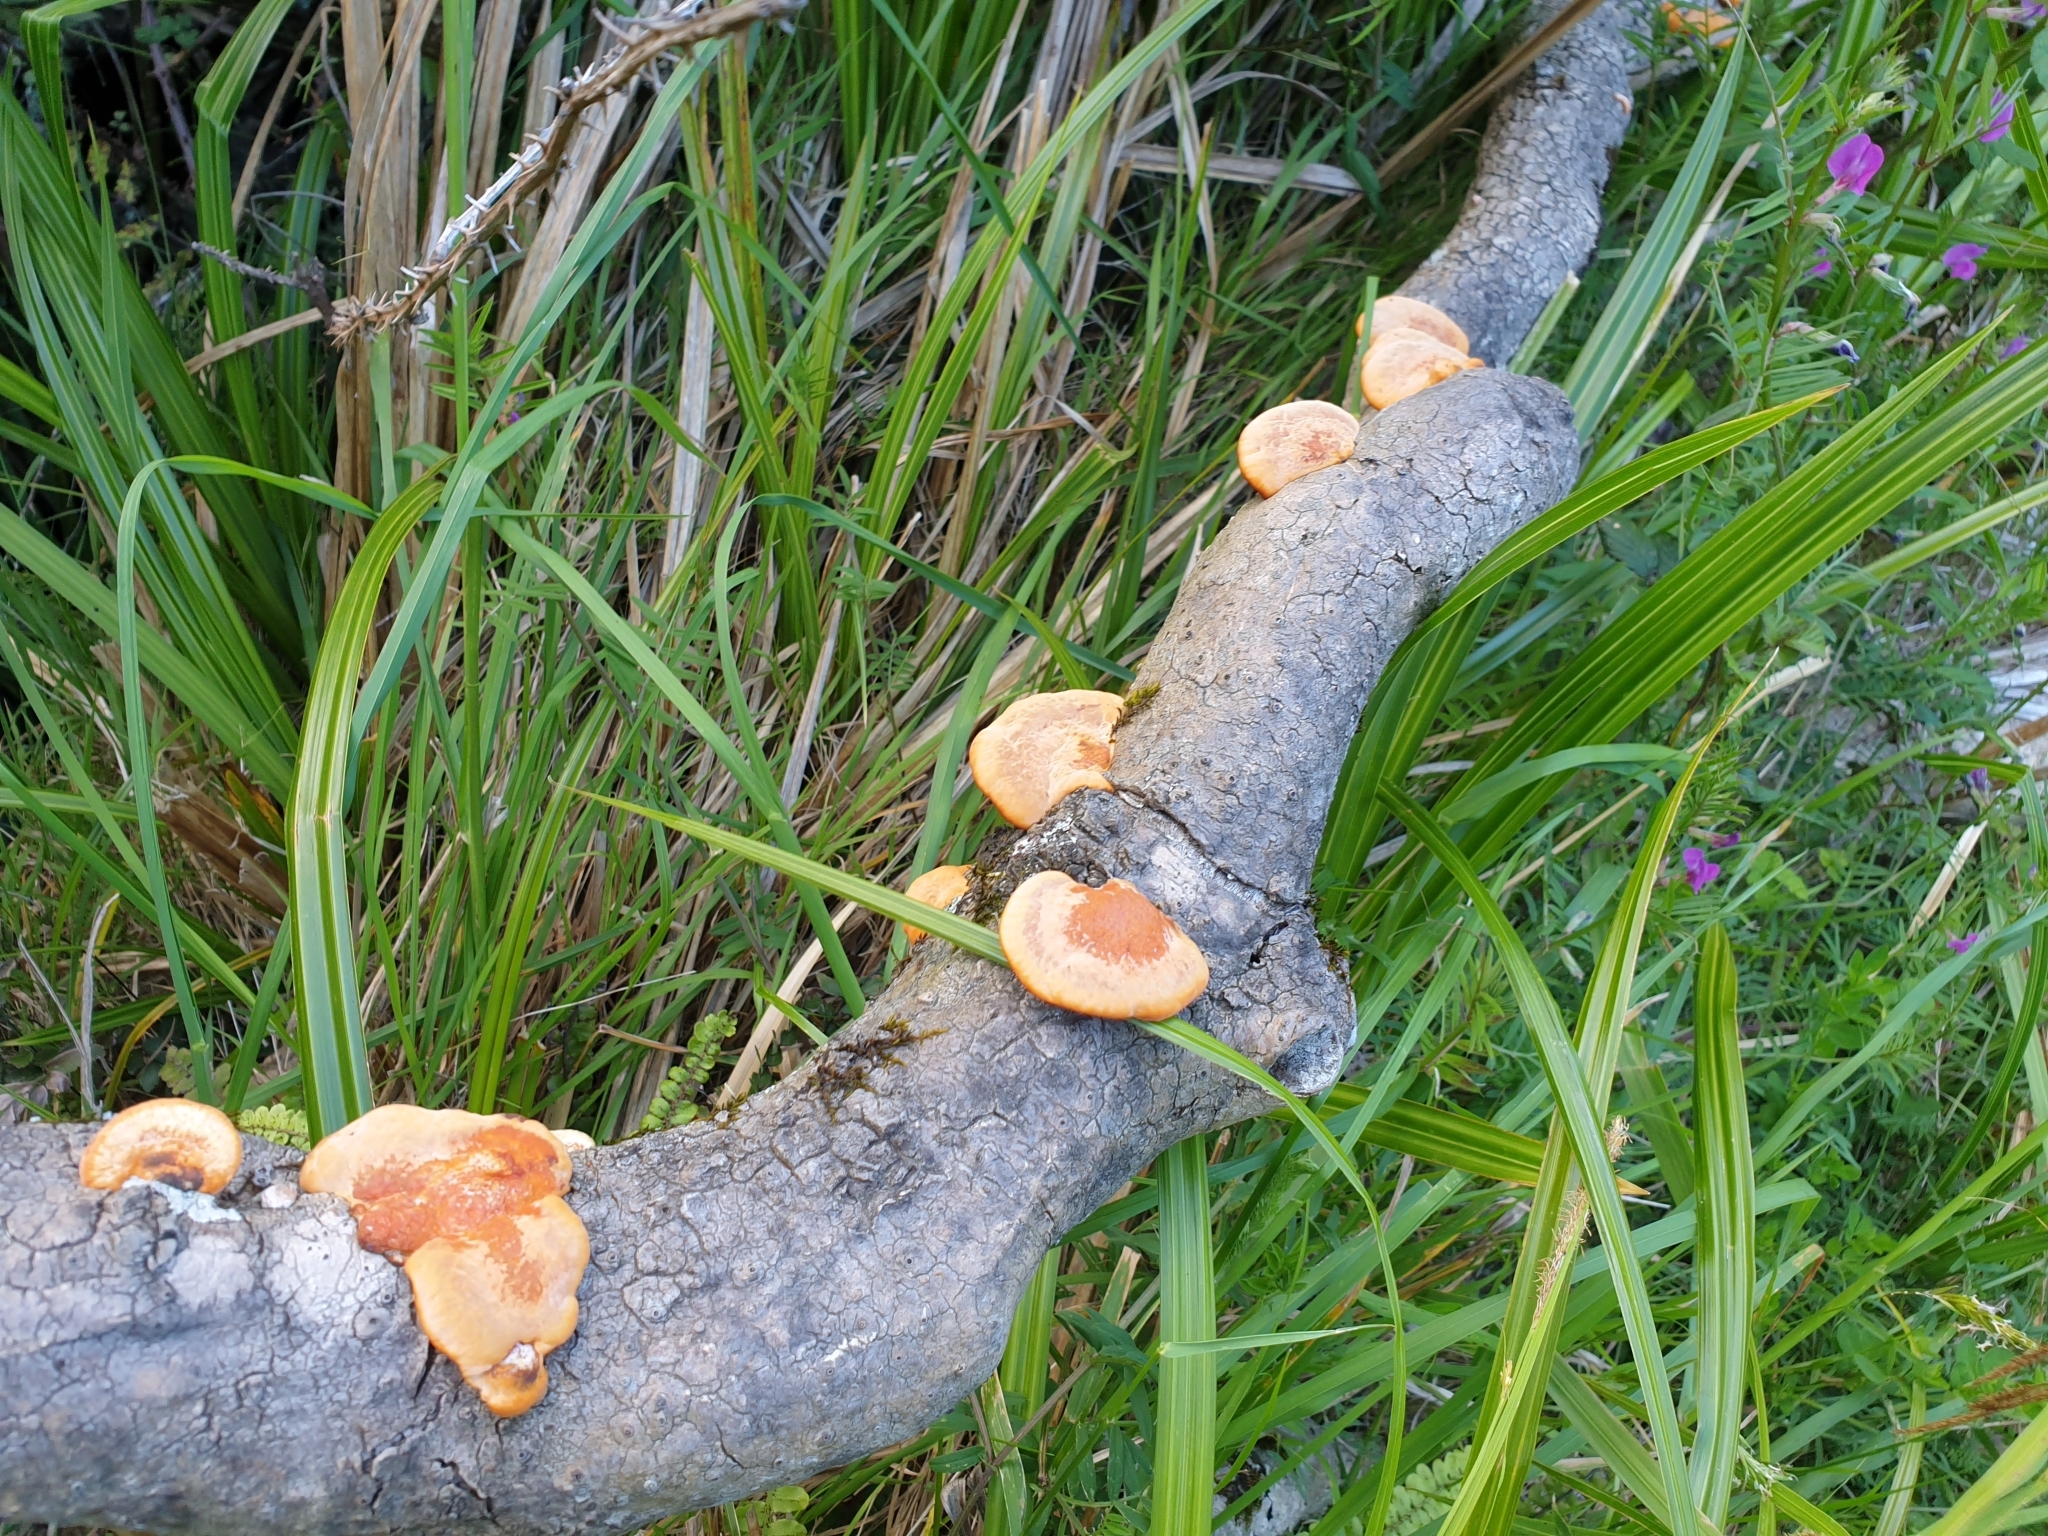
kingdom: Fungi
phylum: Basidiomycota
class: Agaricomycetes
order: Polyporales
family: Polyporaceae
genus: Trametes
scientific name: Trametes coccinea
